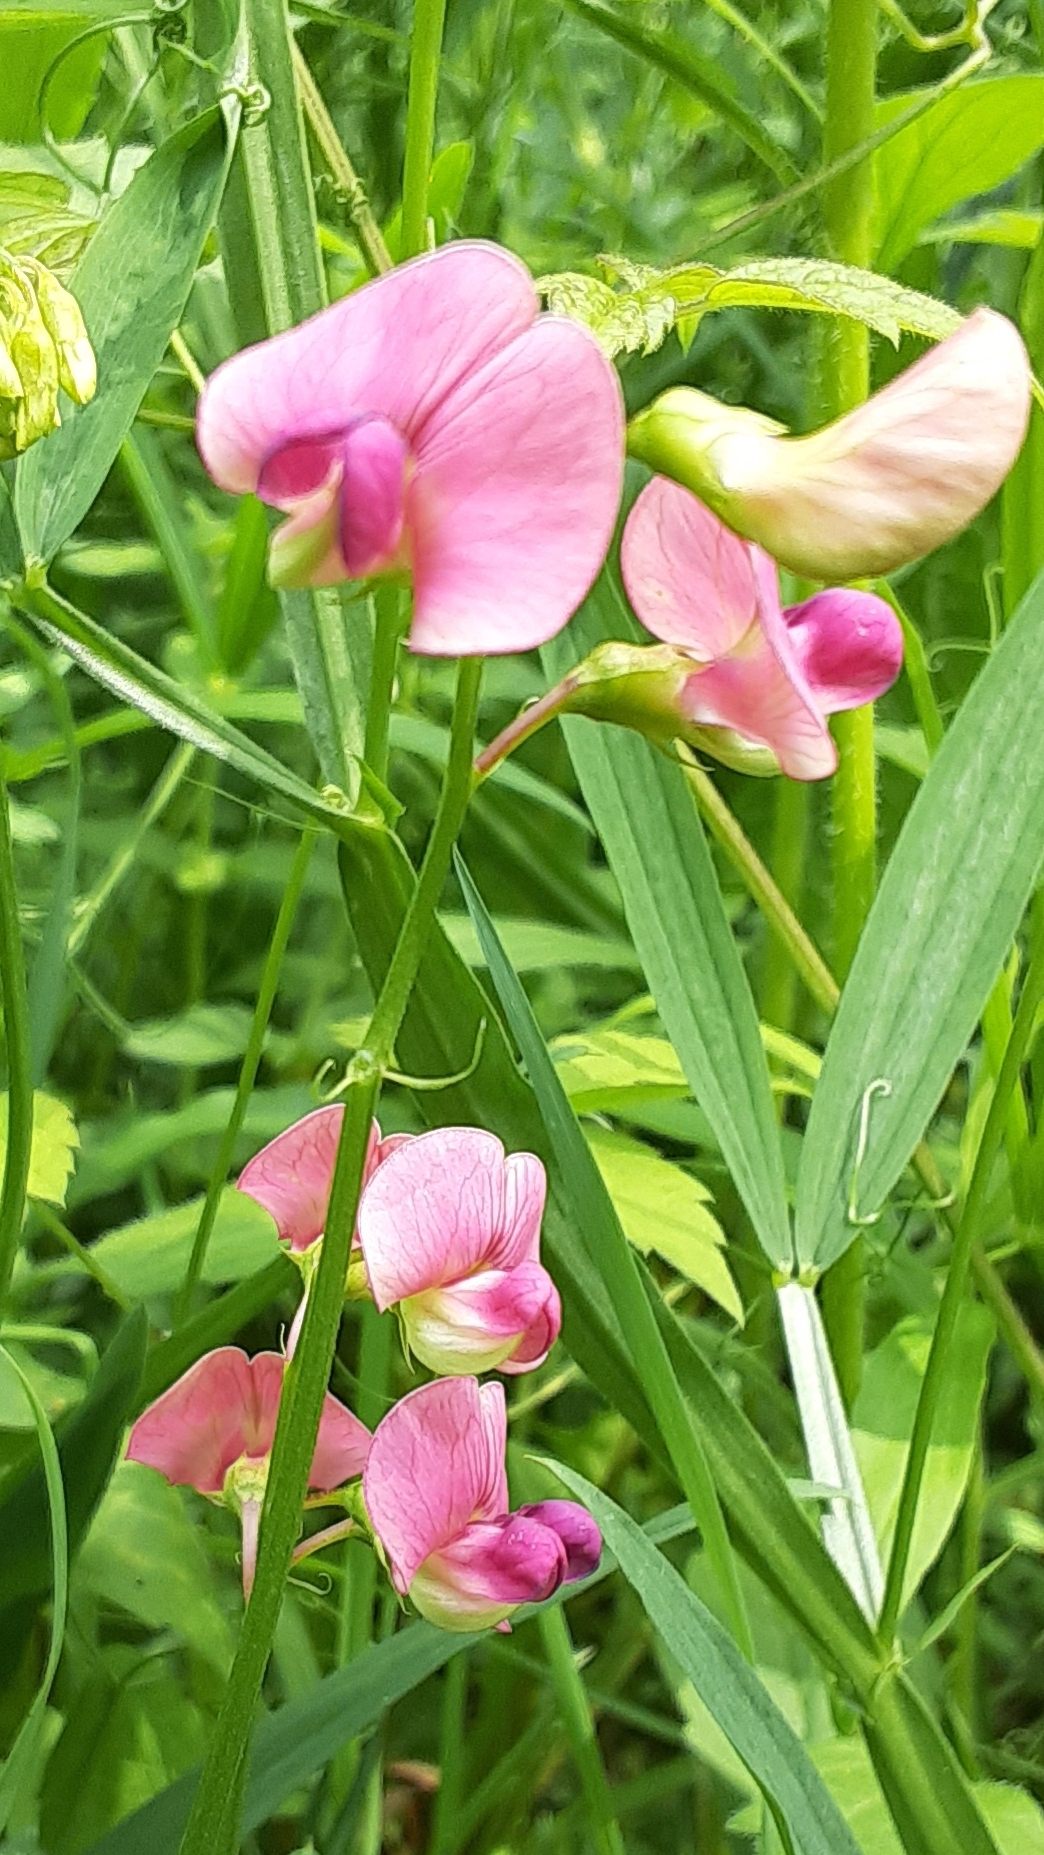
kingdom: Plantae
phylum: Tracheophyta
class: Magnoliopsida
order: Fabales
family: Fabaceae
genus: Lathyrus
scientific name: Lathyrus sylvestris
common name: Flat pea
